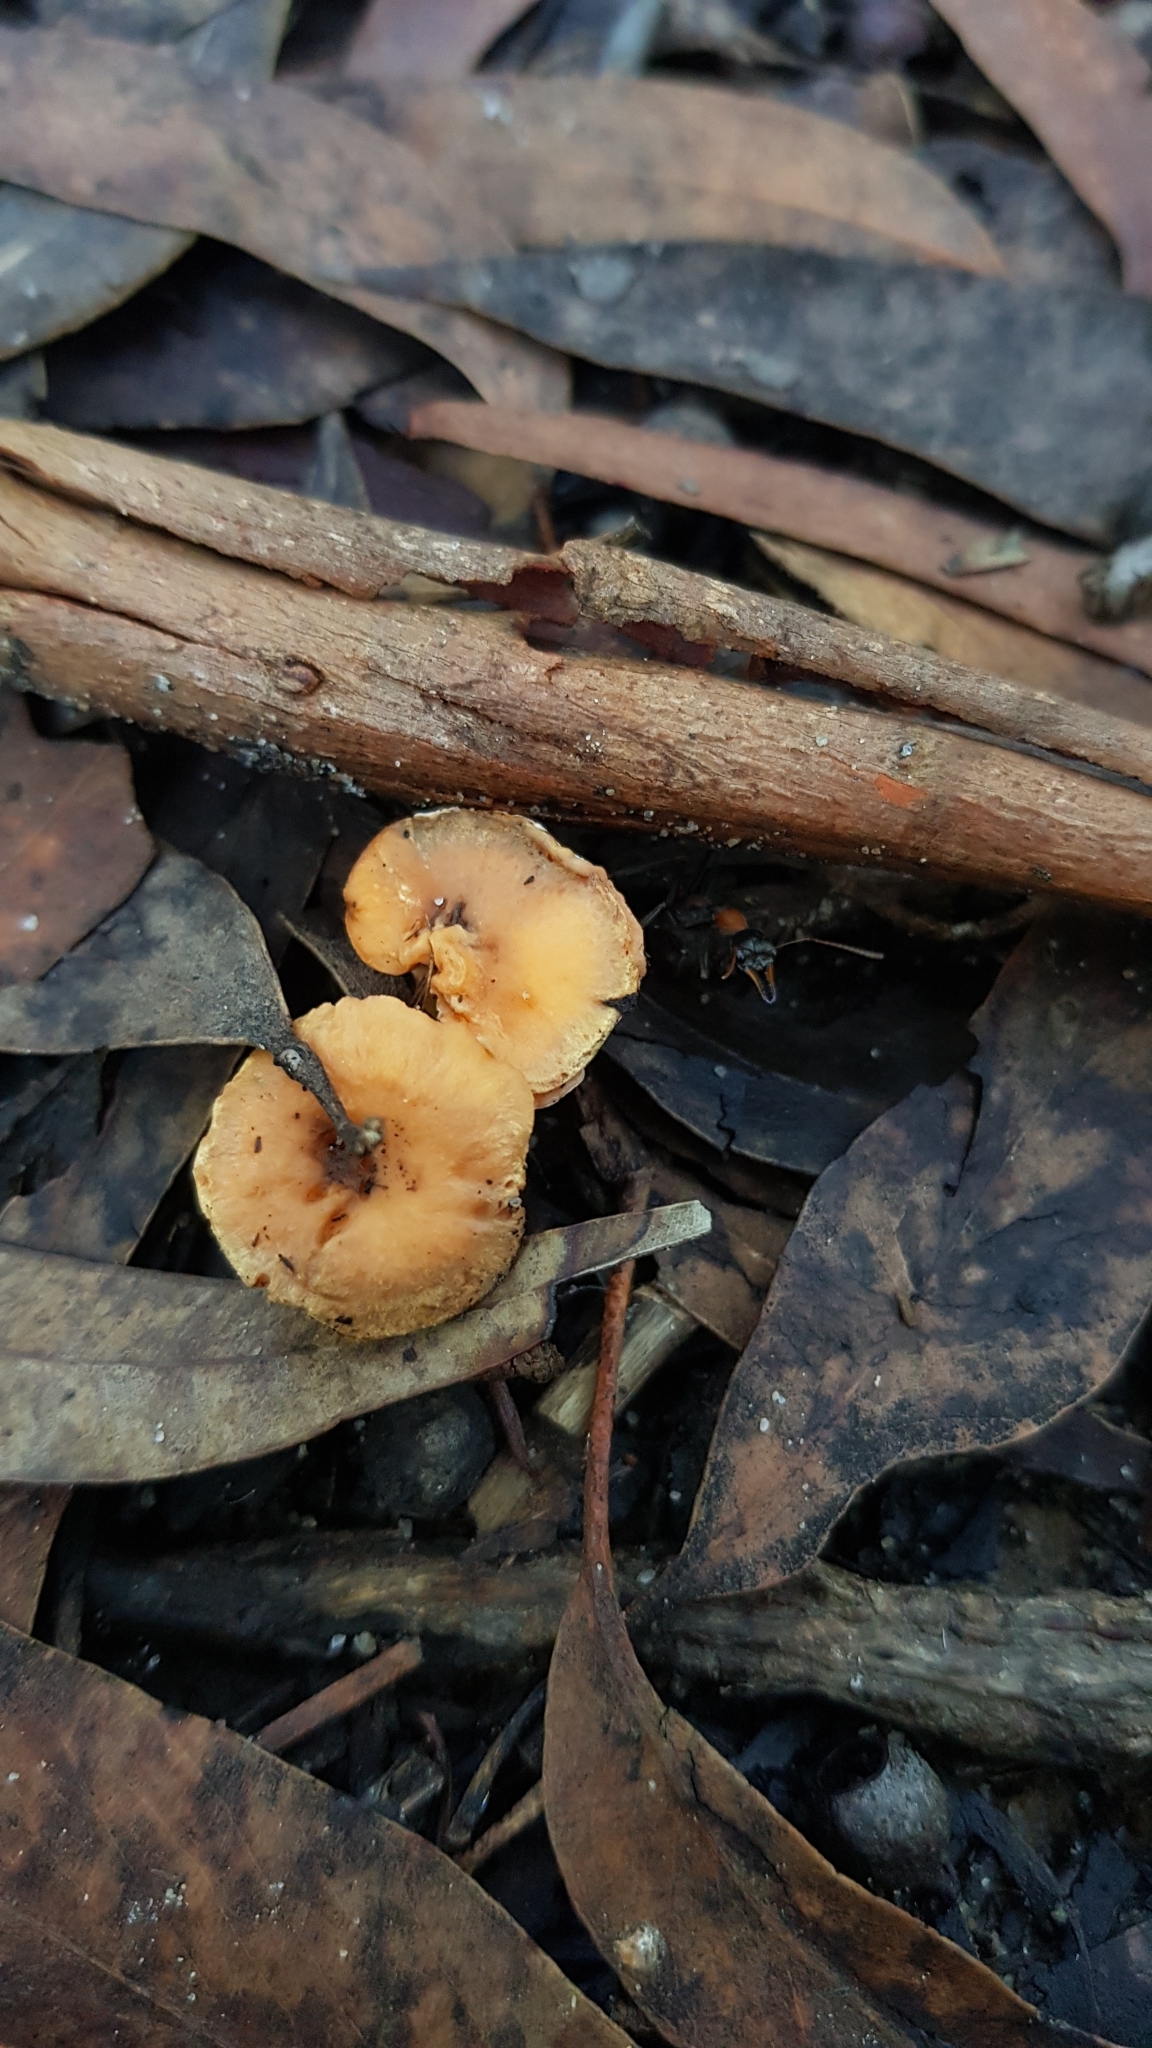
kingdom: Animalia
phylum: Arthropoda
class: Insecta
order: Hymenoptera
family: Formicidae
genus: Myrmecia
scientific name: Myrmecia nigrocincta
